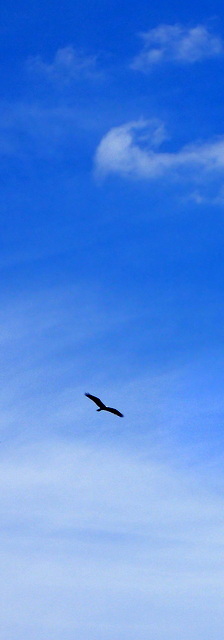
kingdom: Animalia
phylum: Chordata
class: Aves
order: Accipitriformes
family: Pandionidae
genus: Pandion
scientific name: Pandion haliaetus
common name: Osprey
